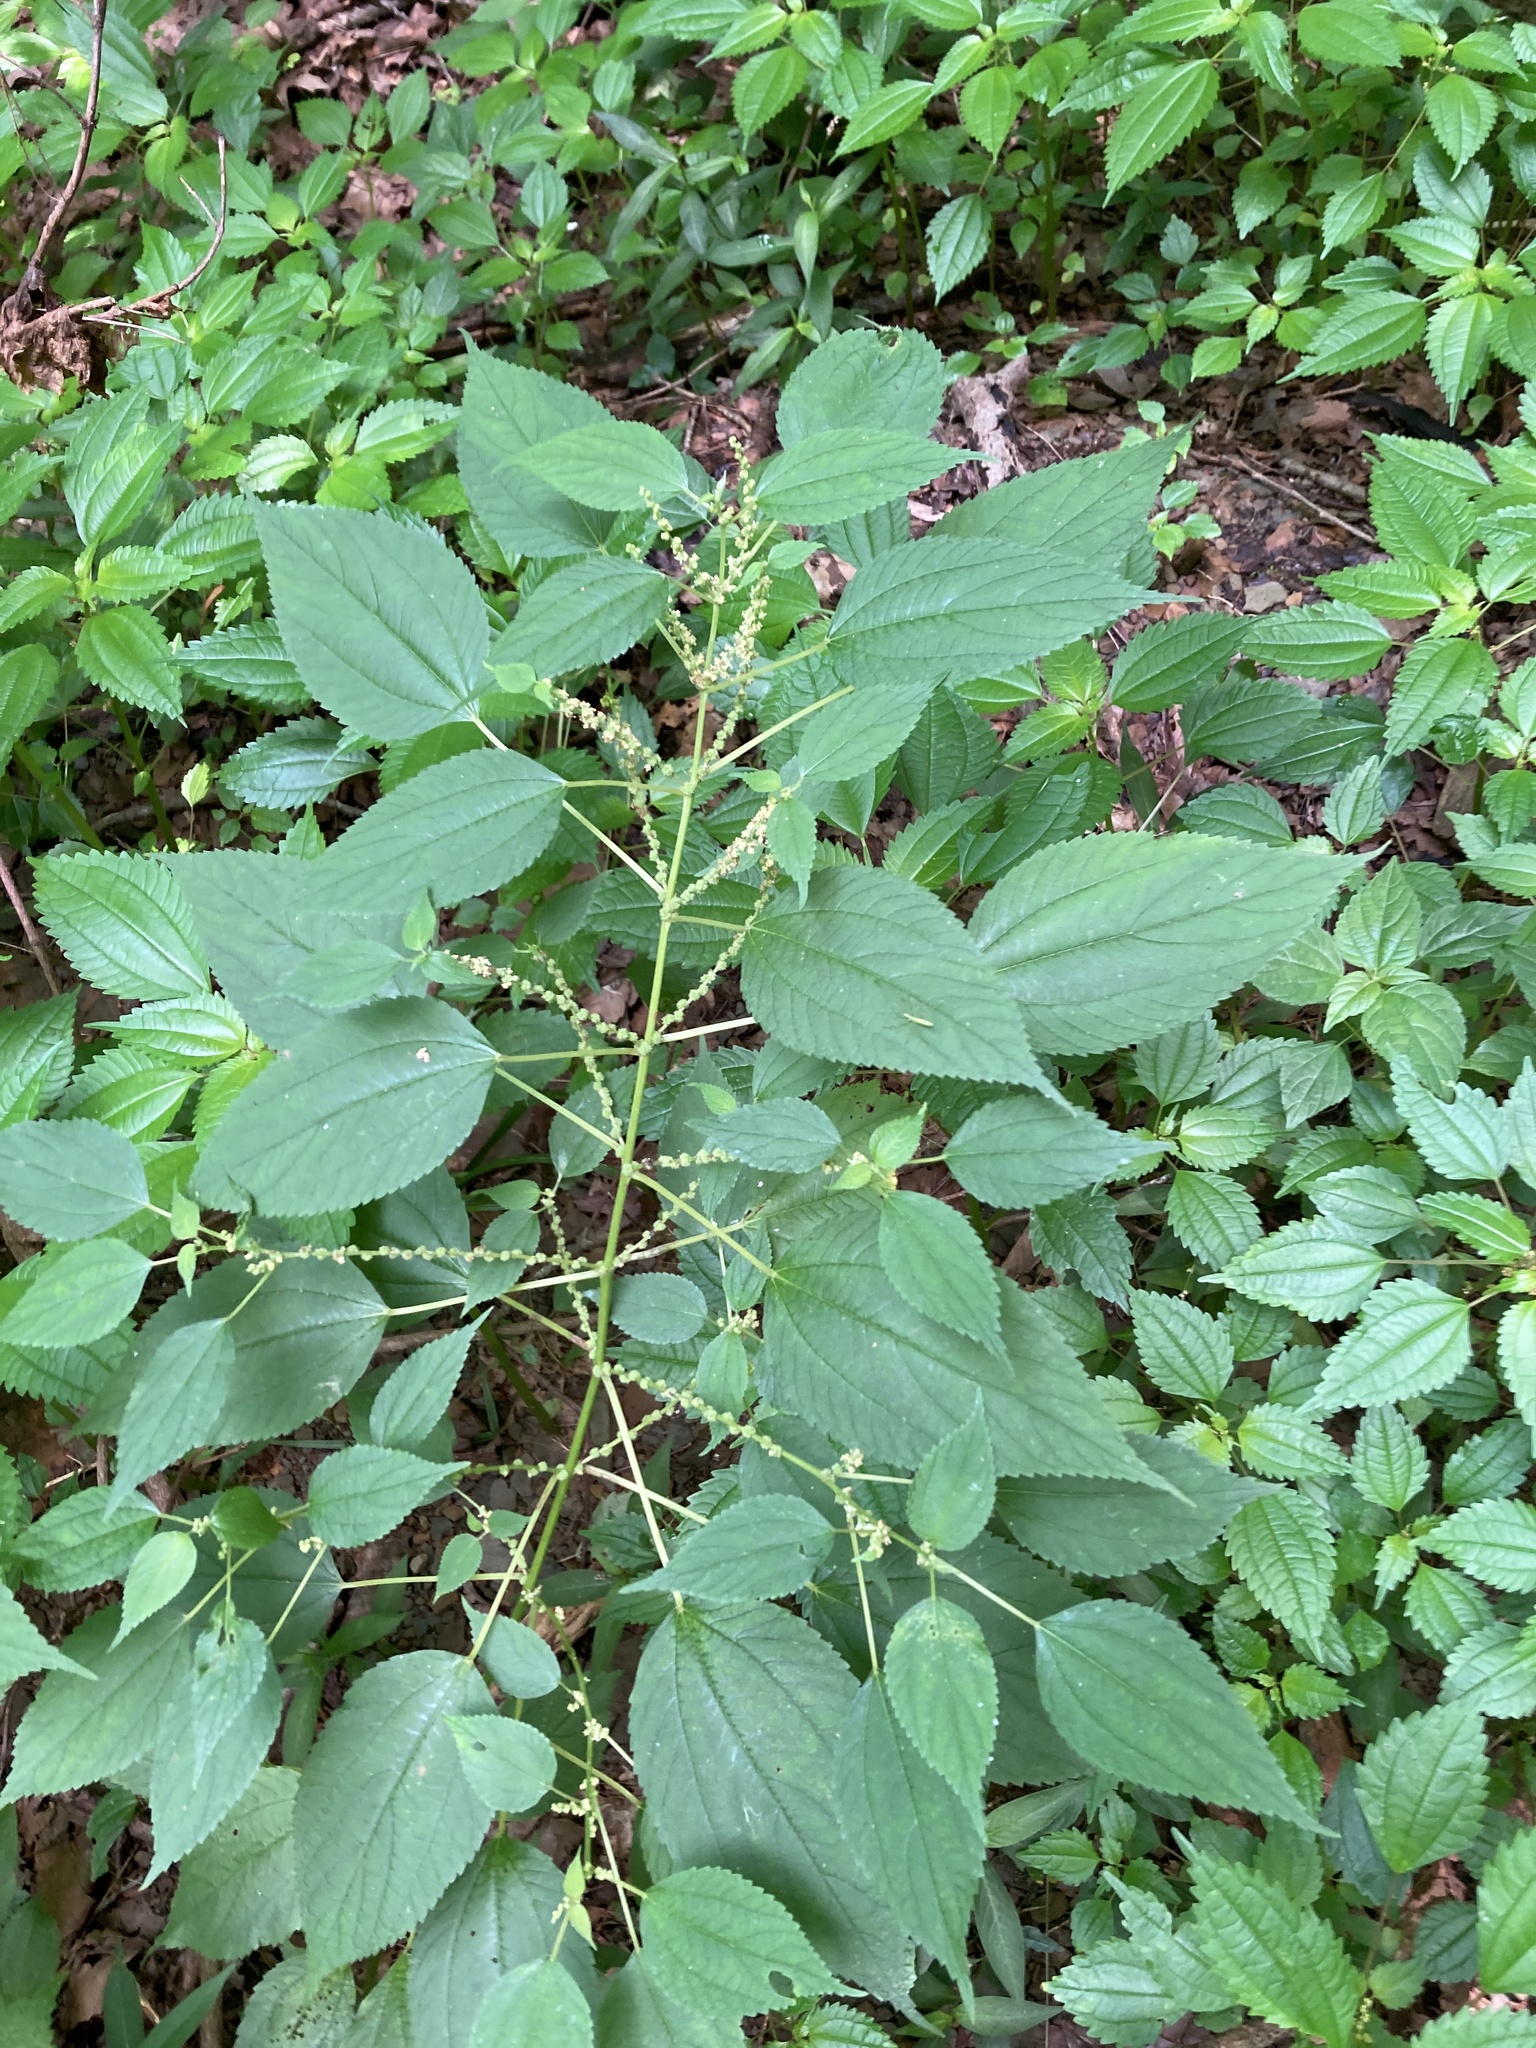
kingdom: Plantae
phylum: Tracheophyta
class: Magnoliopsida
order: Rosales
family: Urticaceae
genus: Boehmeria
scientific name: Boehmeria cylindrica
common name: Bog-hemp
